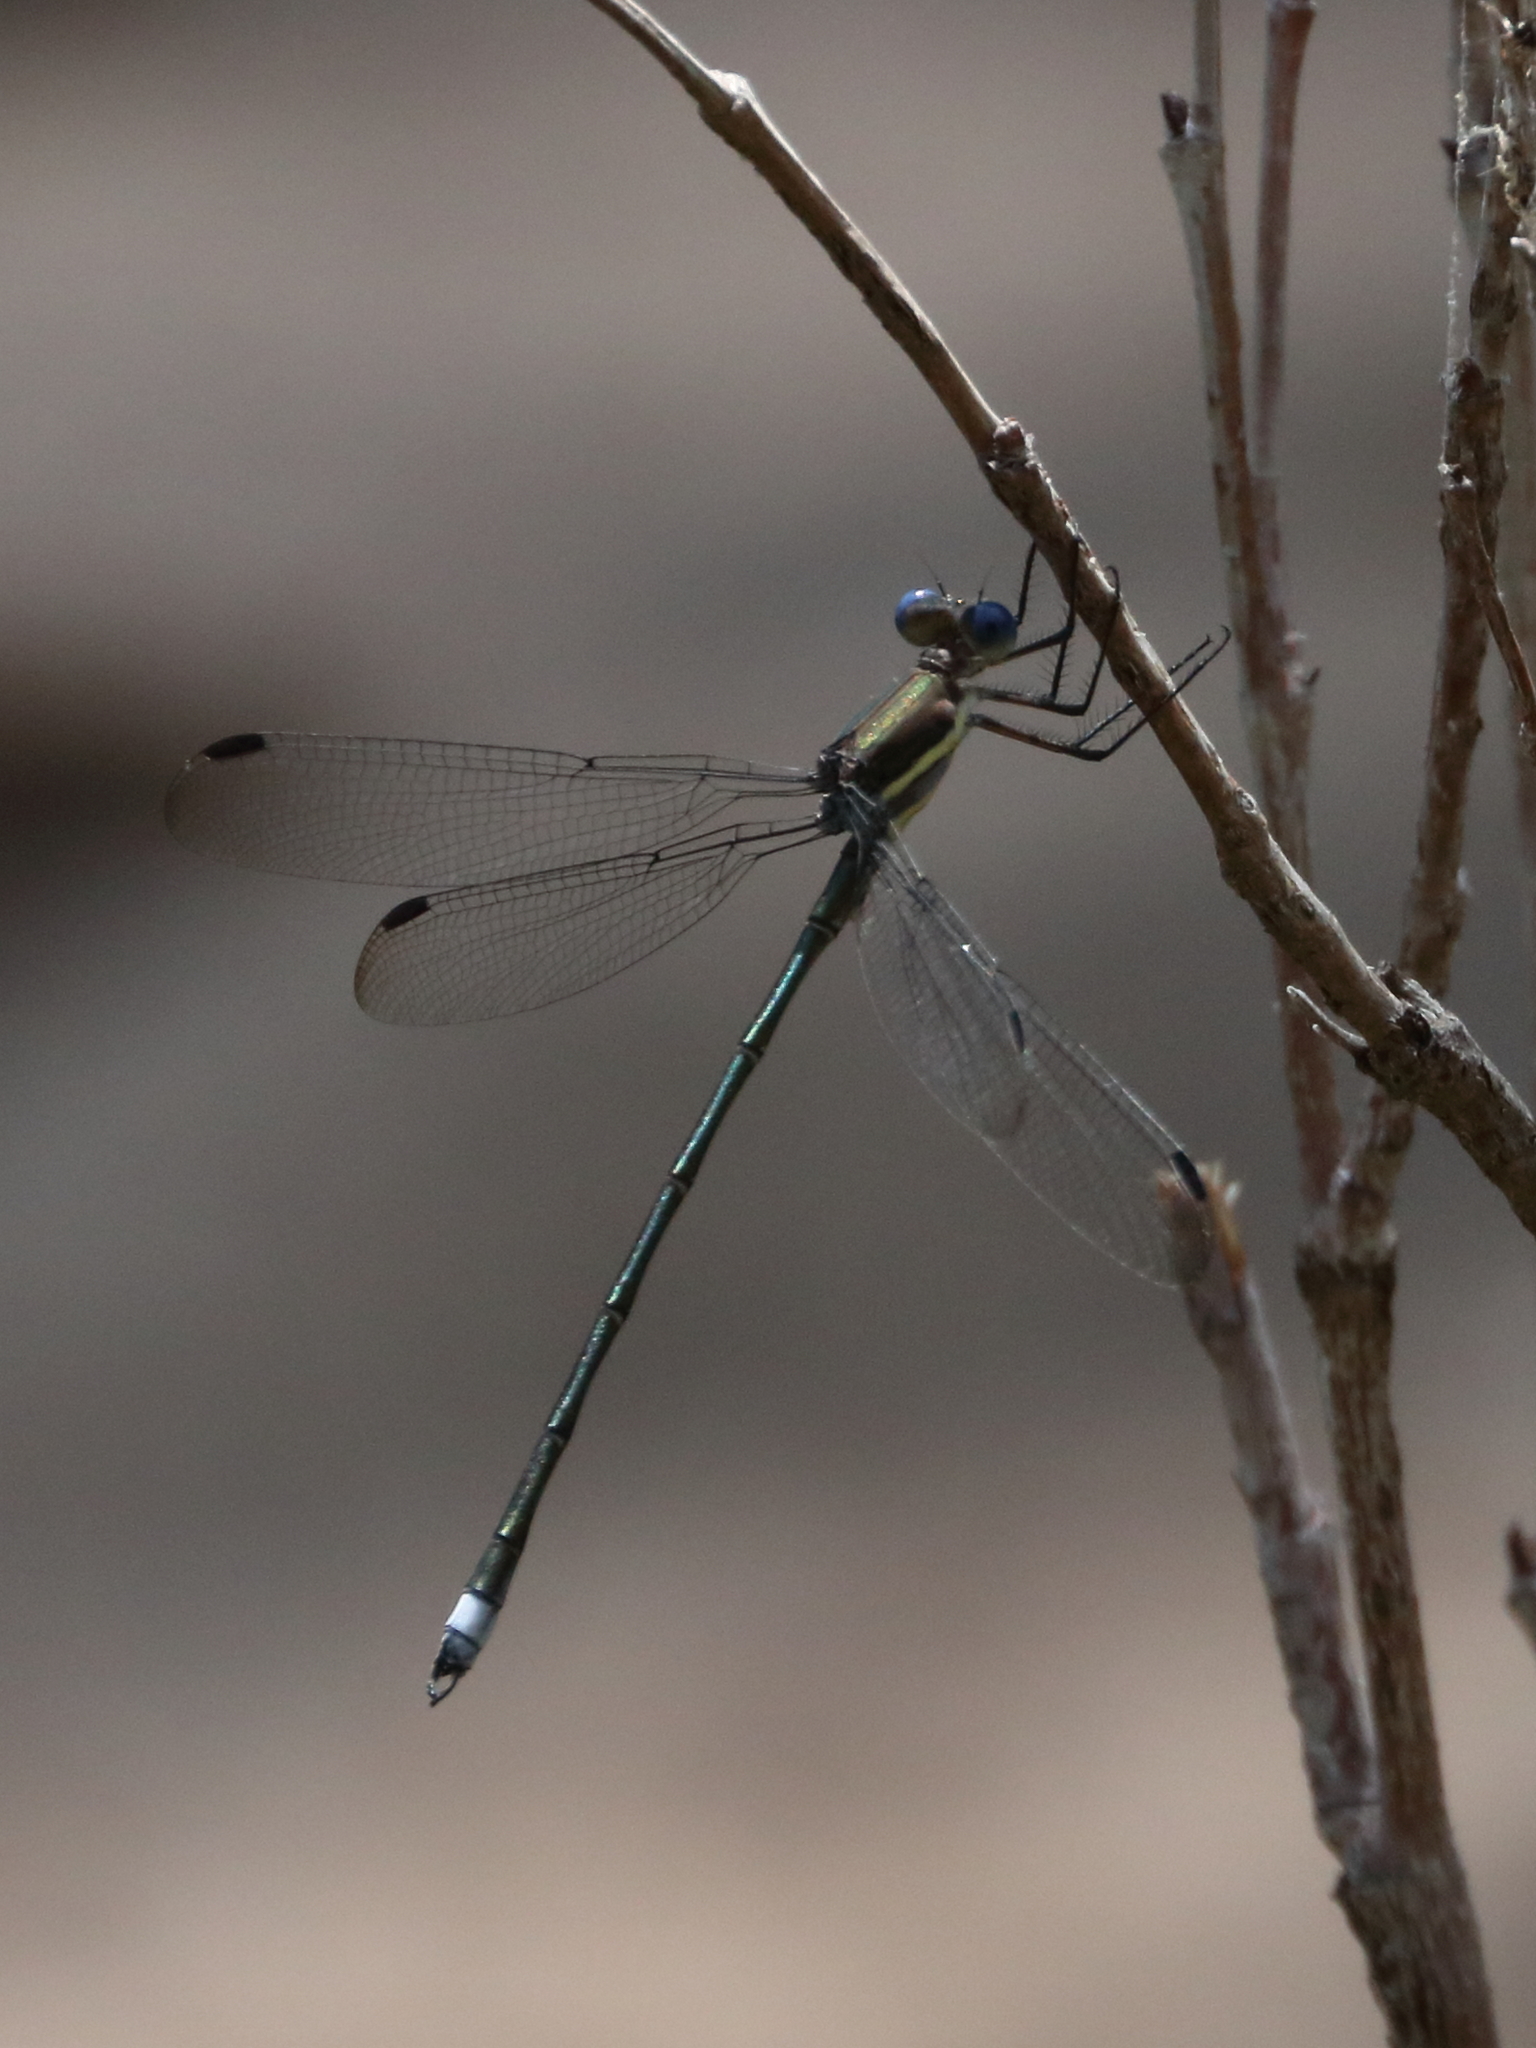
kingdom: Animalia
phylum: Arthropoda
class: Insecta
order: Odonata
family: Lestidae
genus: Archilestes
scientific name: Archilestes grandis
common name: Great spreadwing
